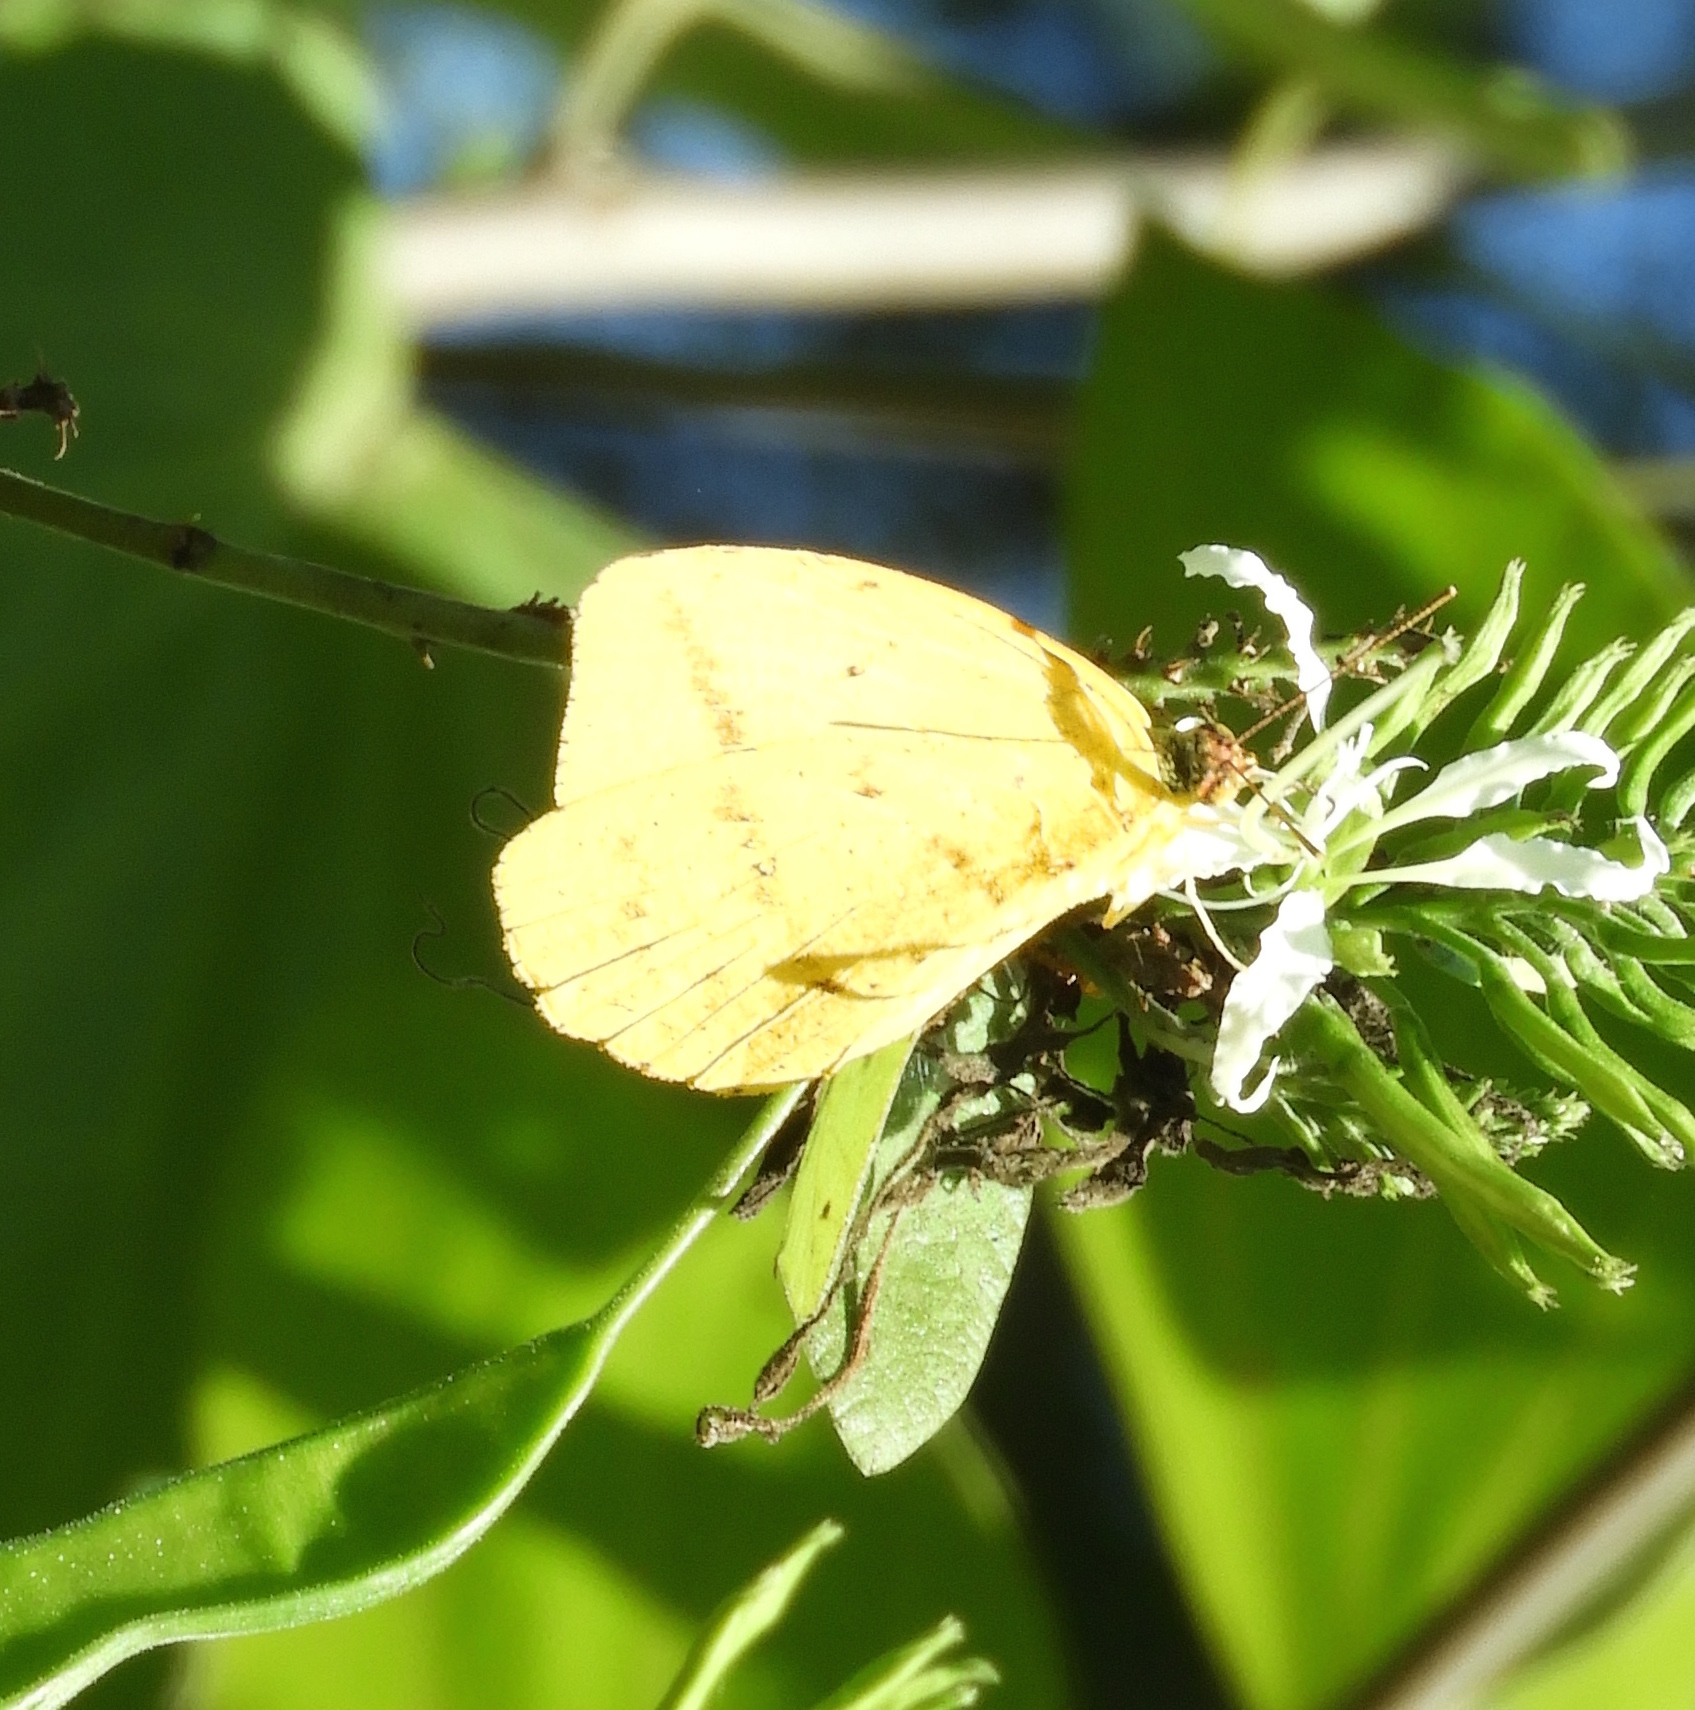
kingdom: Animalia
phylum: Arthropoda
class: Insecta
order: Lepidoptera
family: Pieridae
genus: Phoebis
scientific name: Phoebis agarithe
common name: Large orange sulphur
